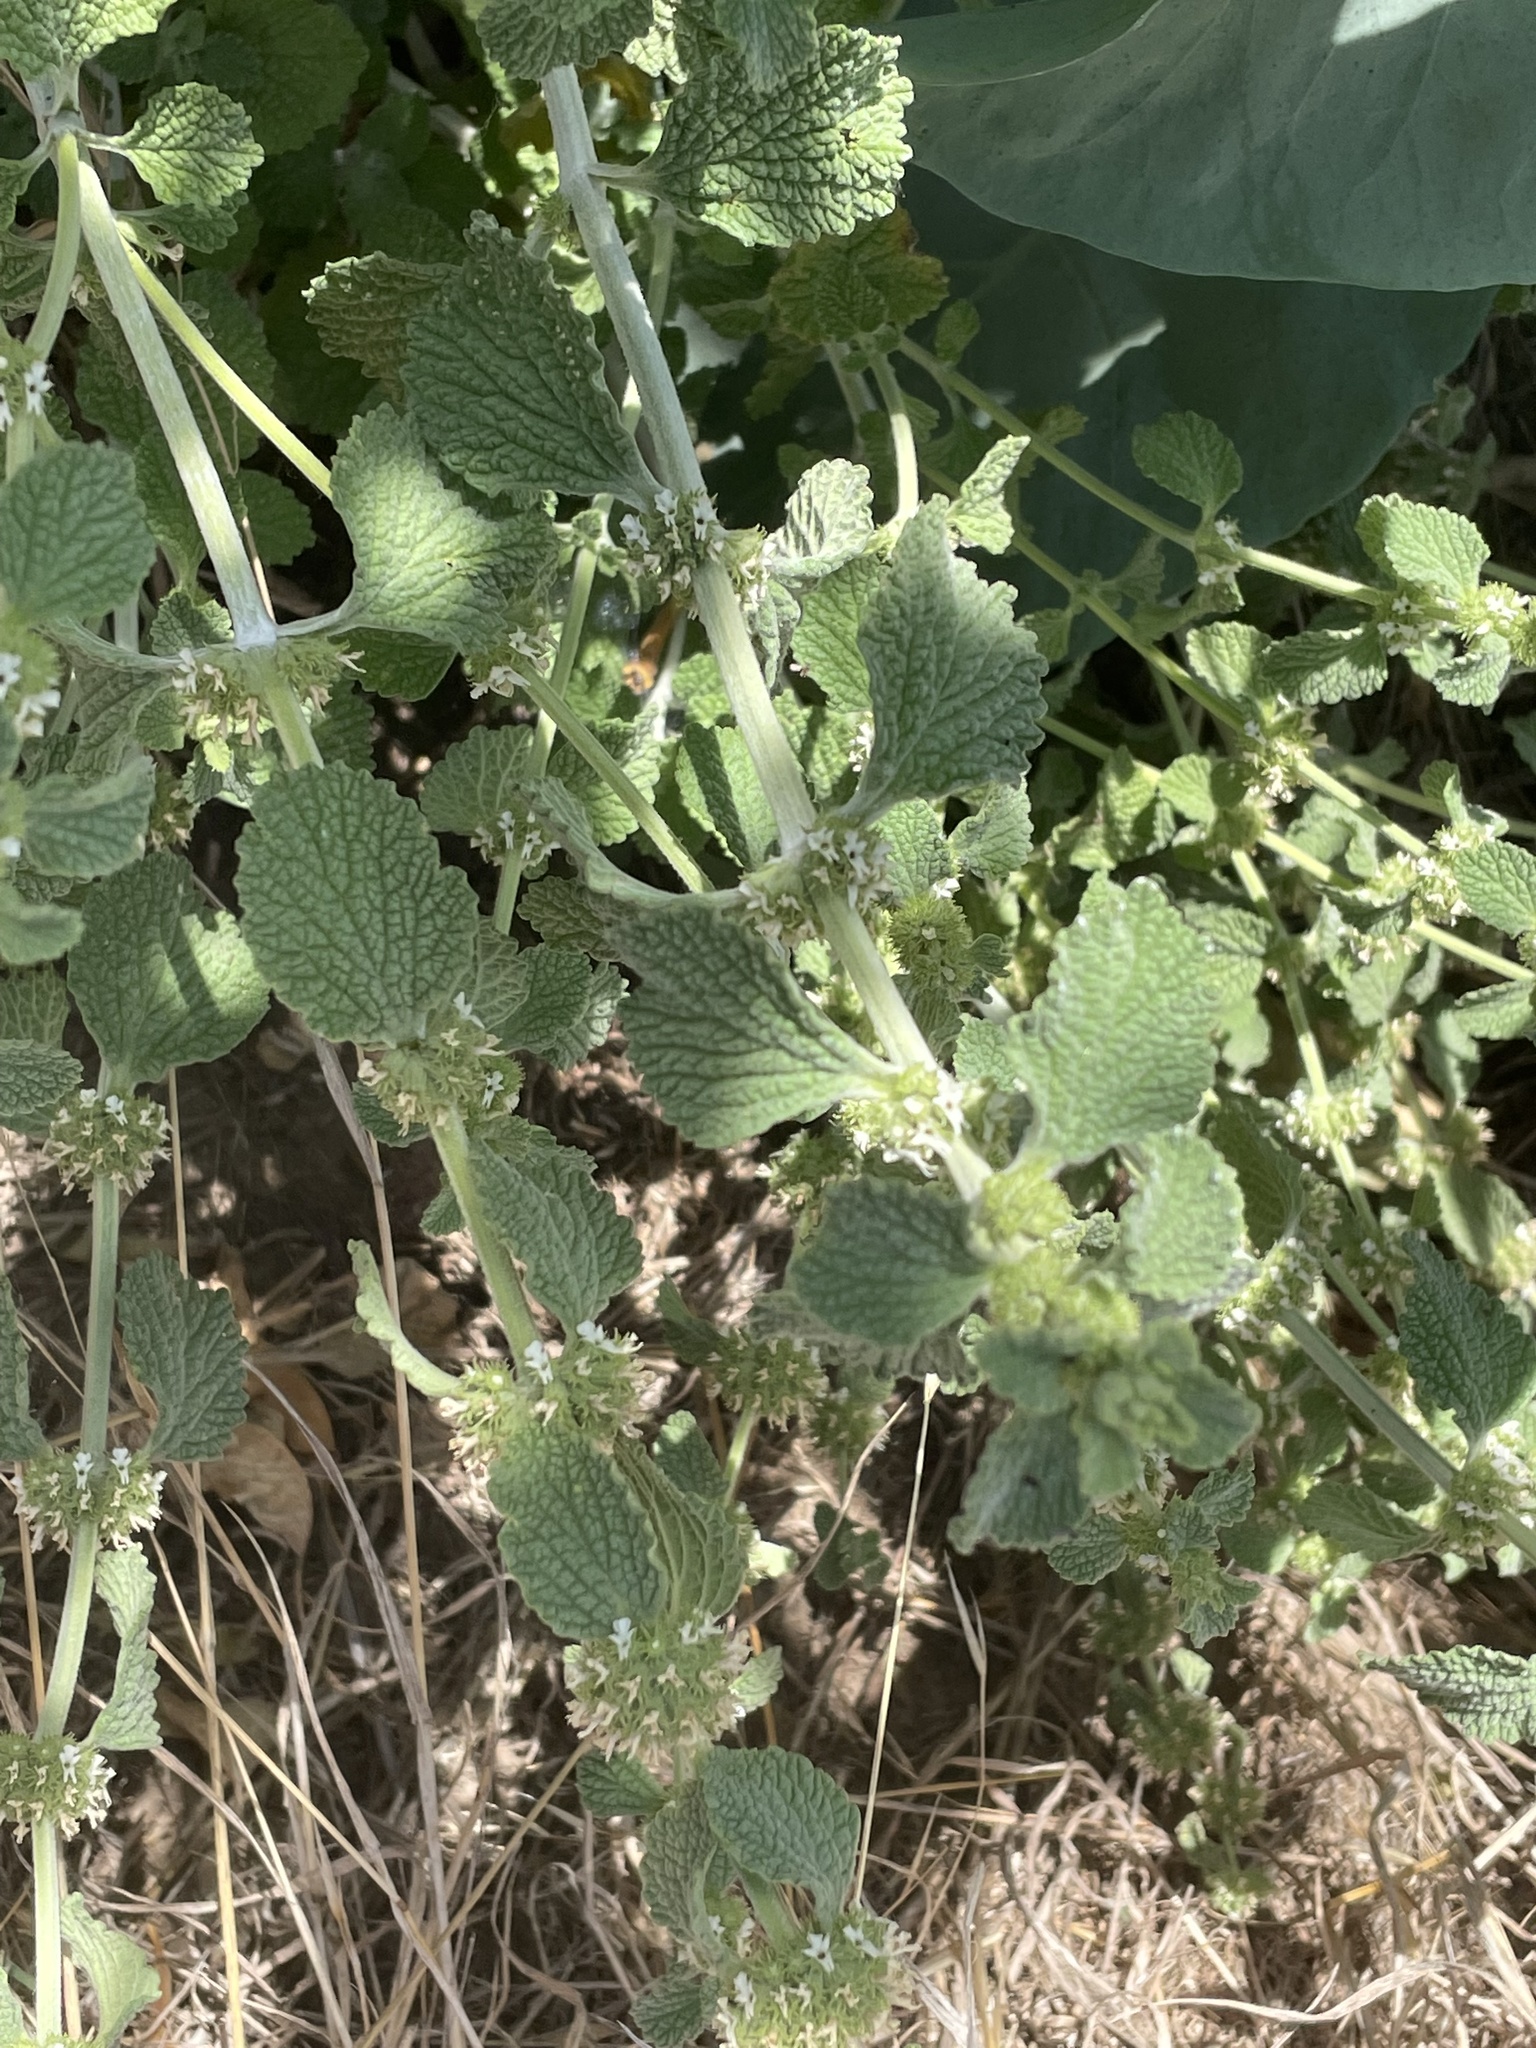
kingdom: Plantae
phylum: Tracheophyta
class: Magnoliopsida
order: Lamiales
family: Lamiaceae
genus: Marrubium
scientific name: Marrubium vulgare
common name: Horehound
